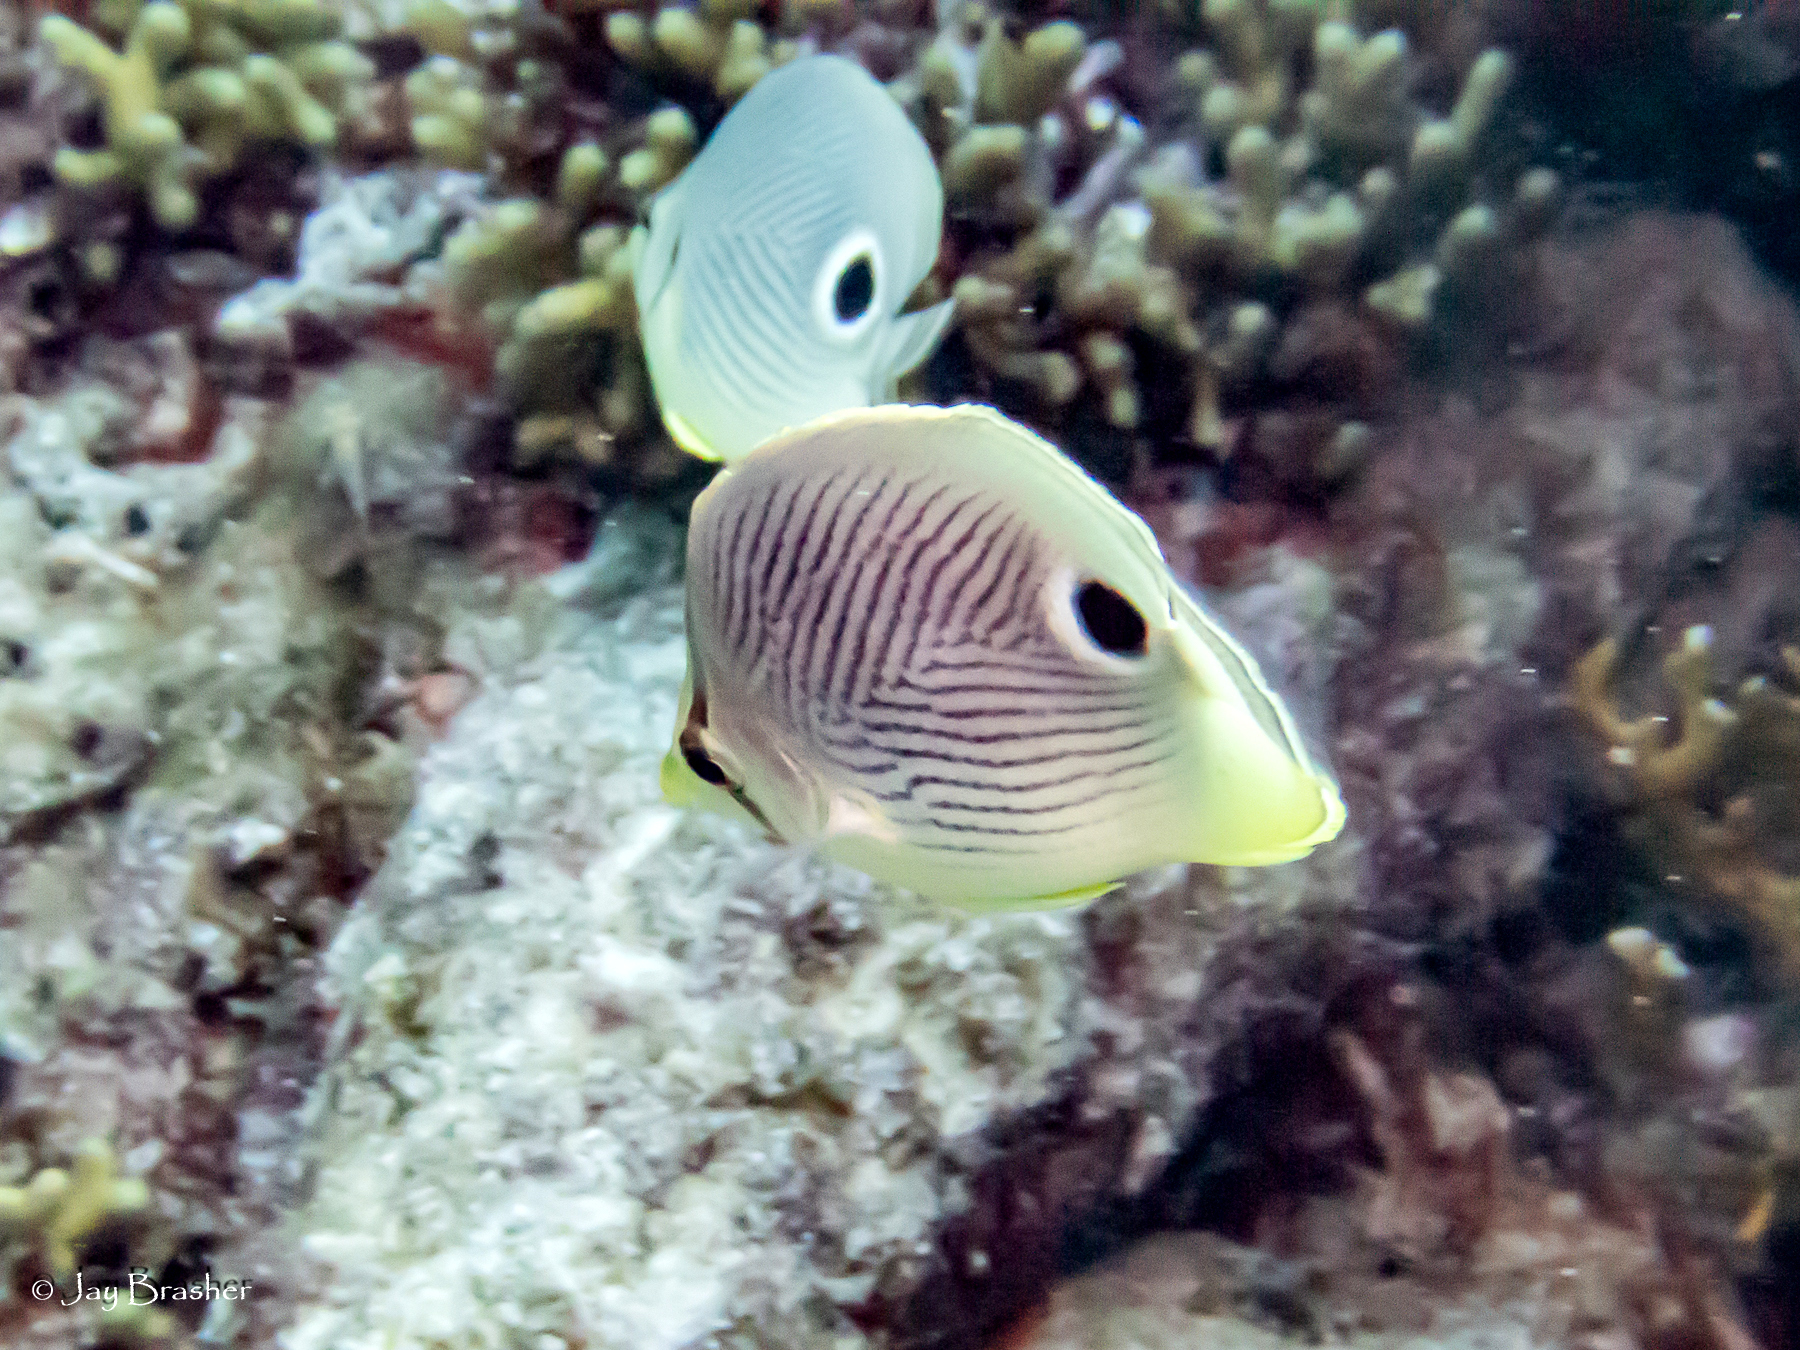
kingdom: Animalia
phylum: Chordata
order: Perciformes
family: Chaetodontidae
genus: Chaetodon
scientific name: Chaetodon capistratus
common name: Kete
